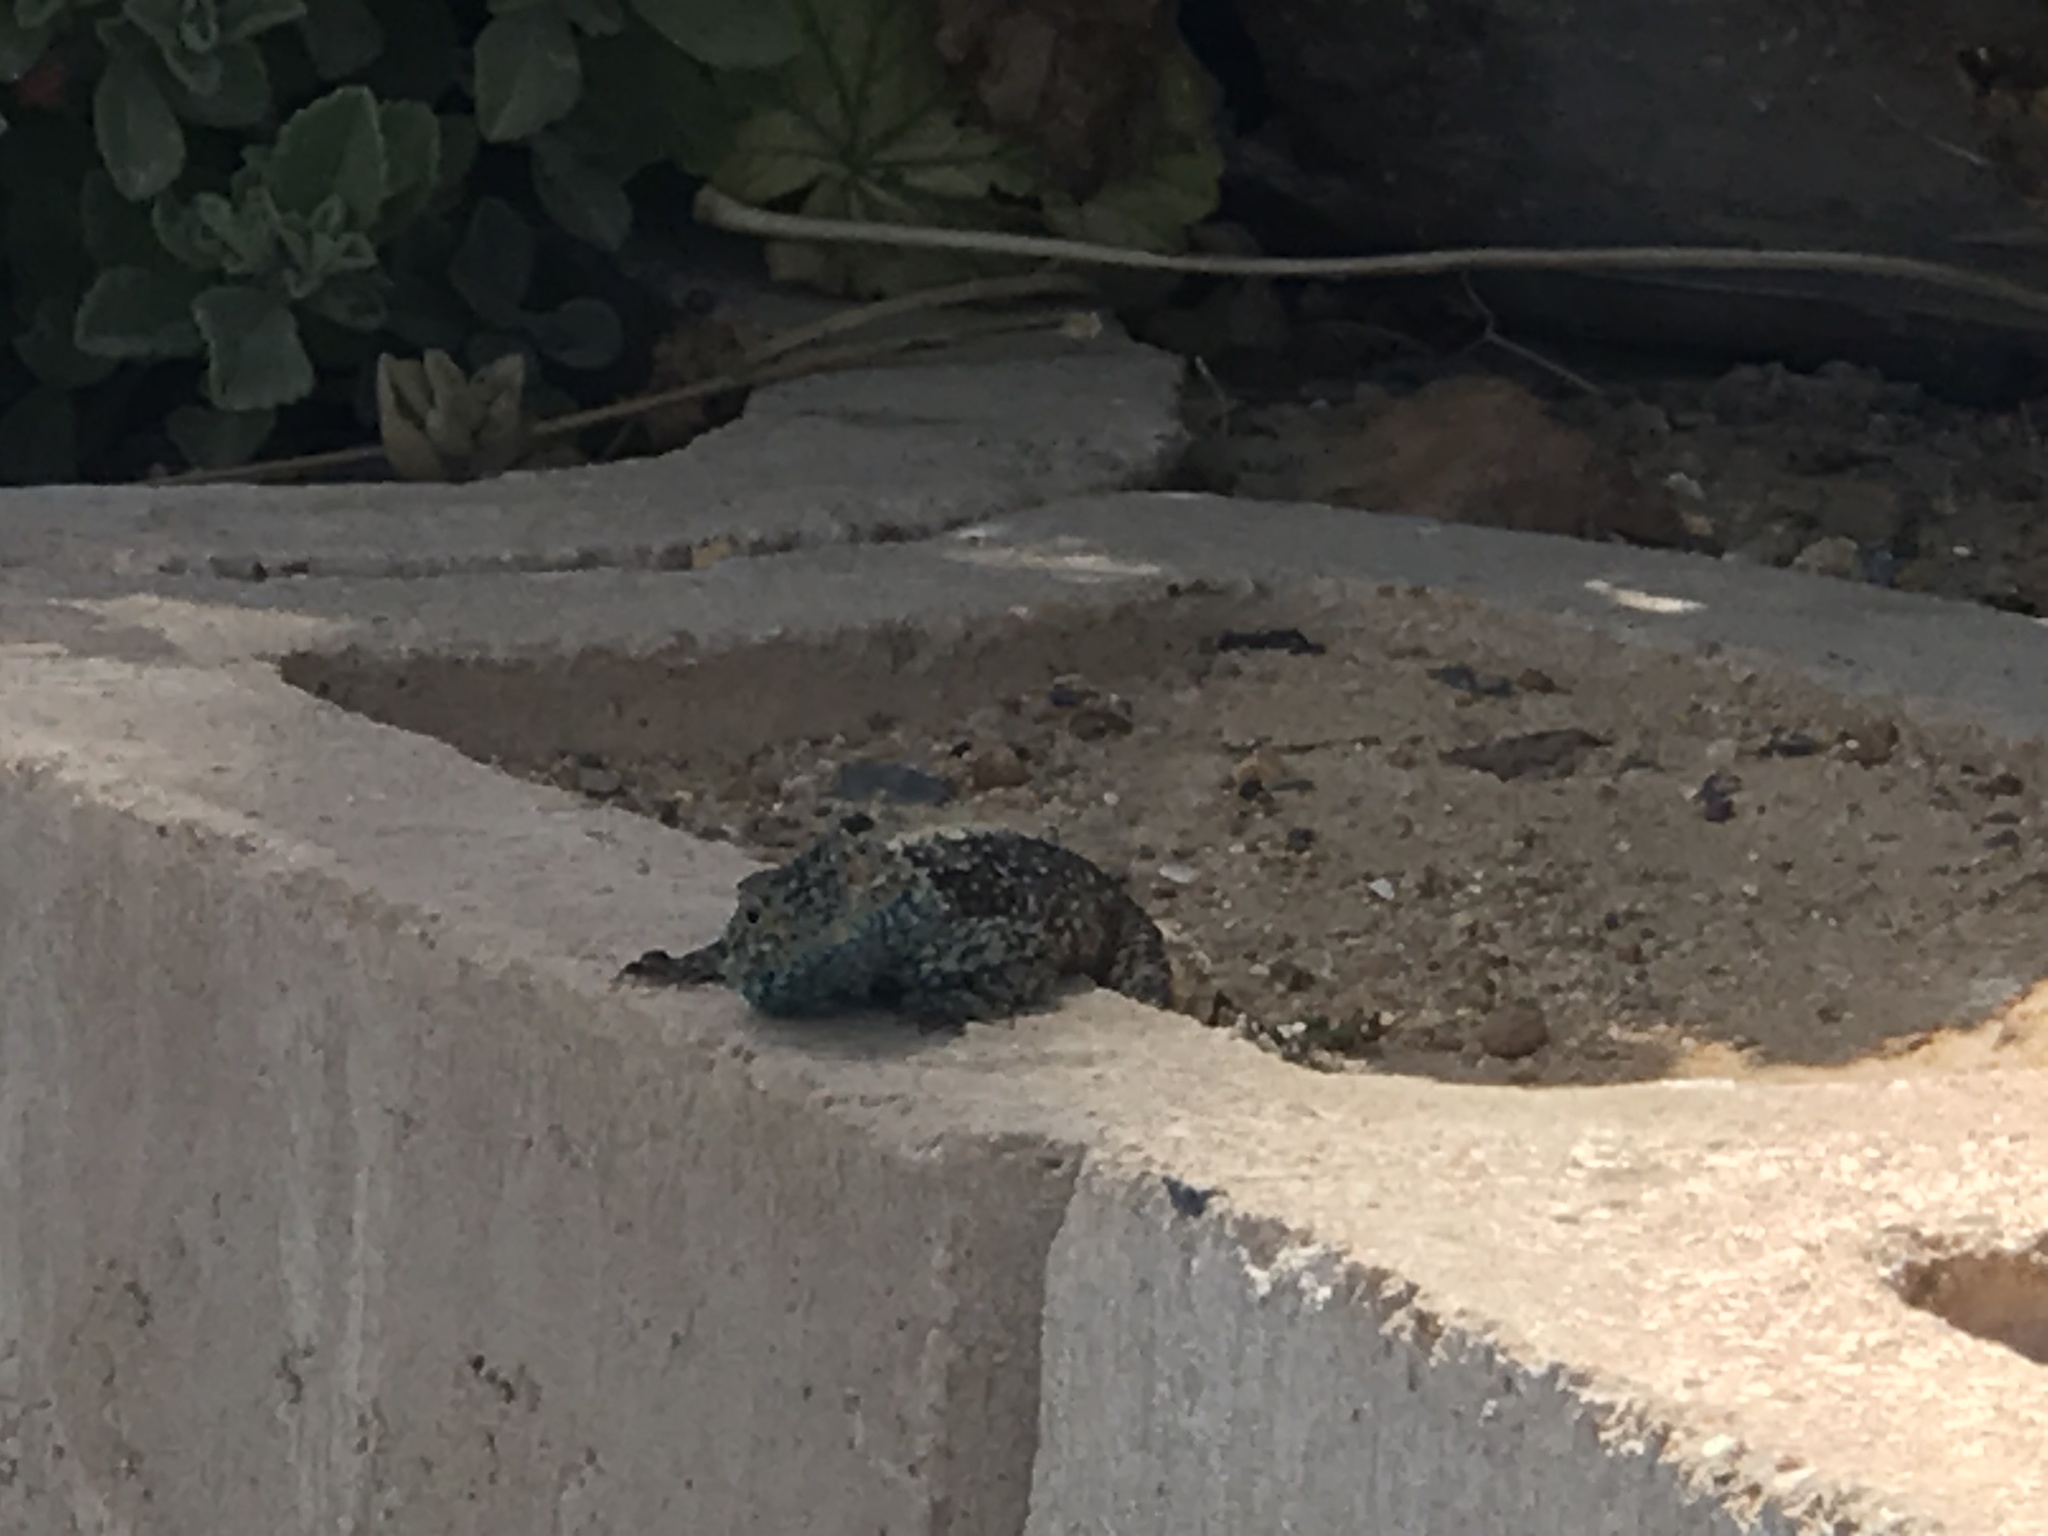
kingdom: Animalia
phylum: Chordata
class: Squamata
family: Agamidae
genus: Agama
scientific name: Agama atra
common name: Southern african rock agama
